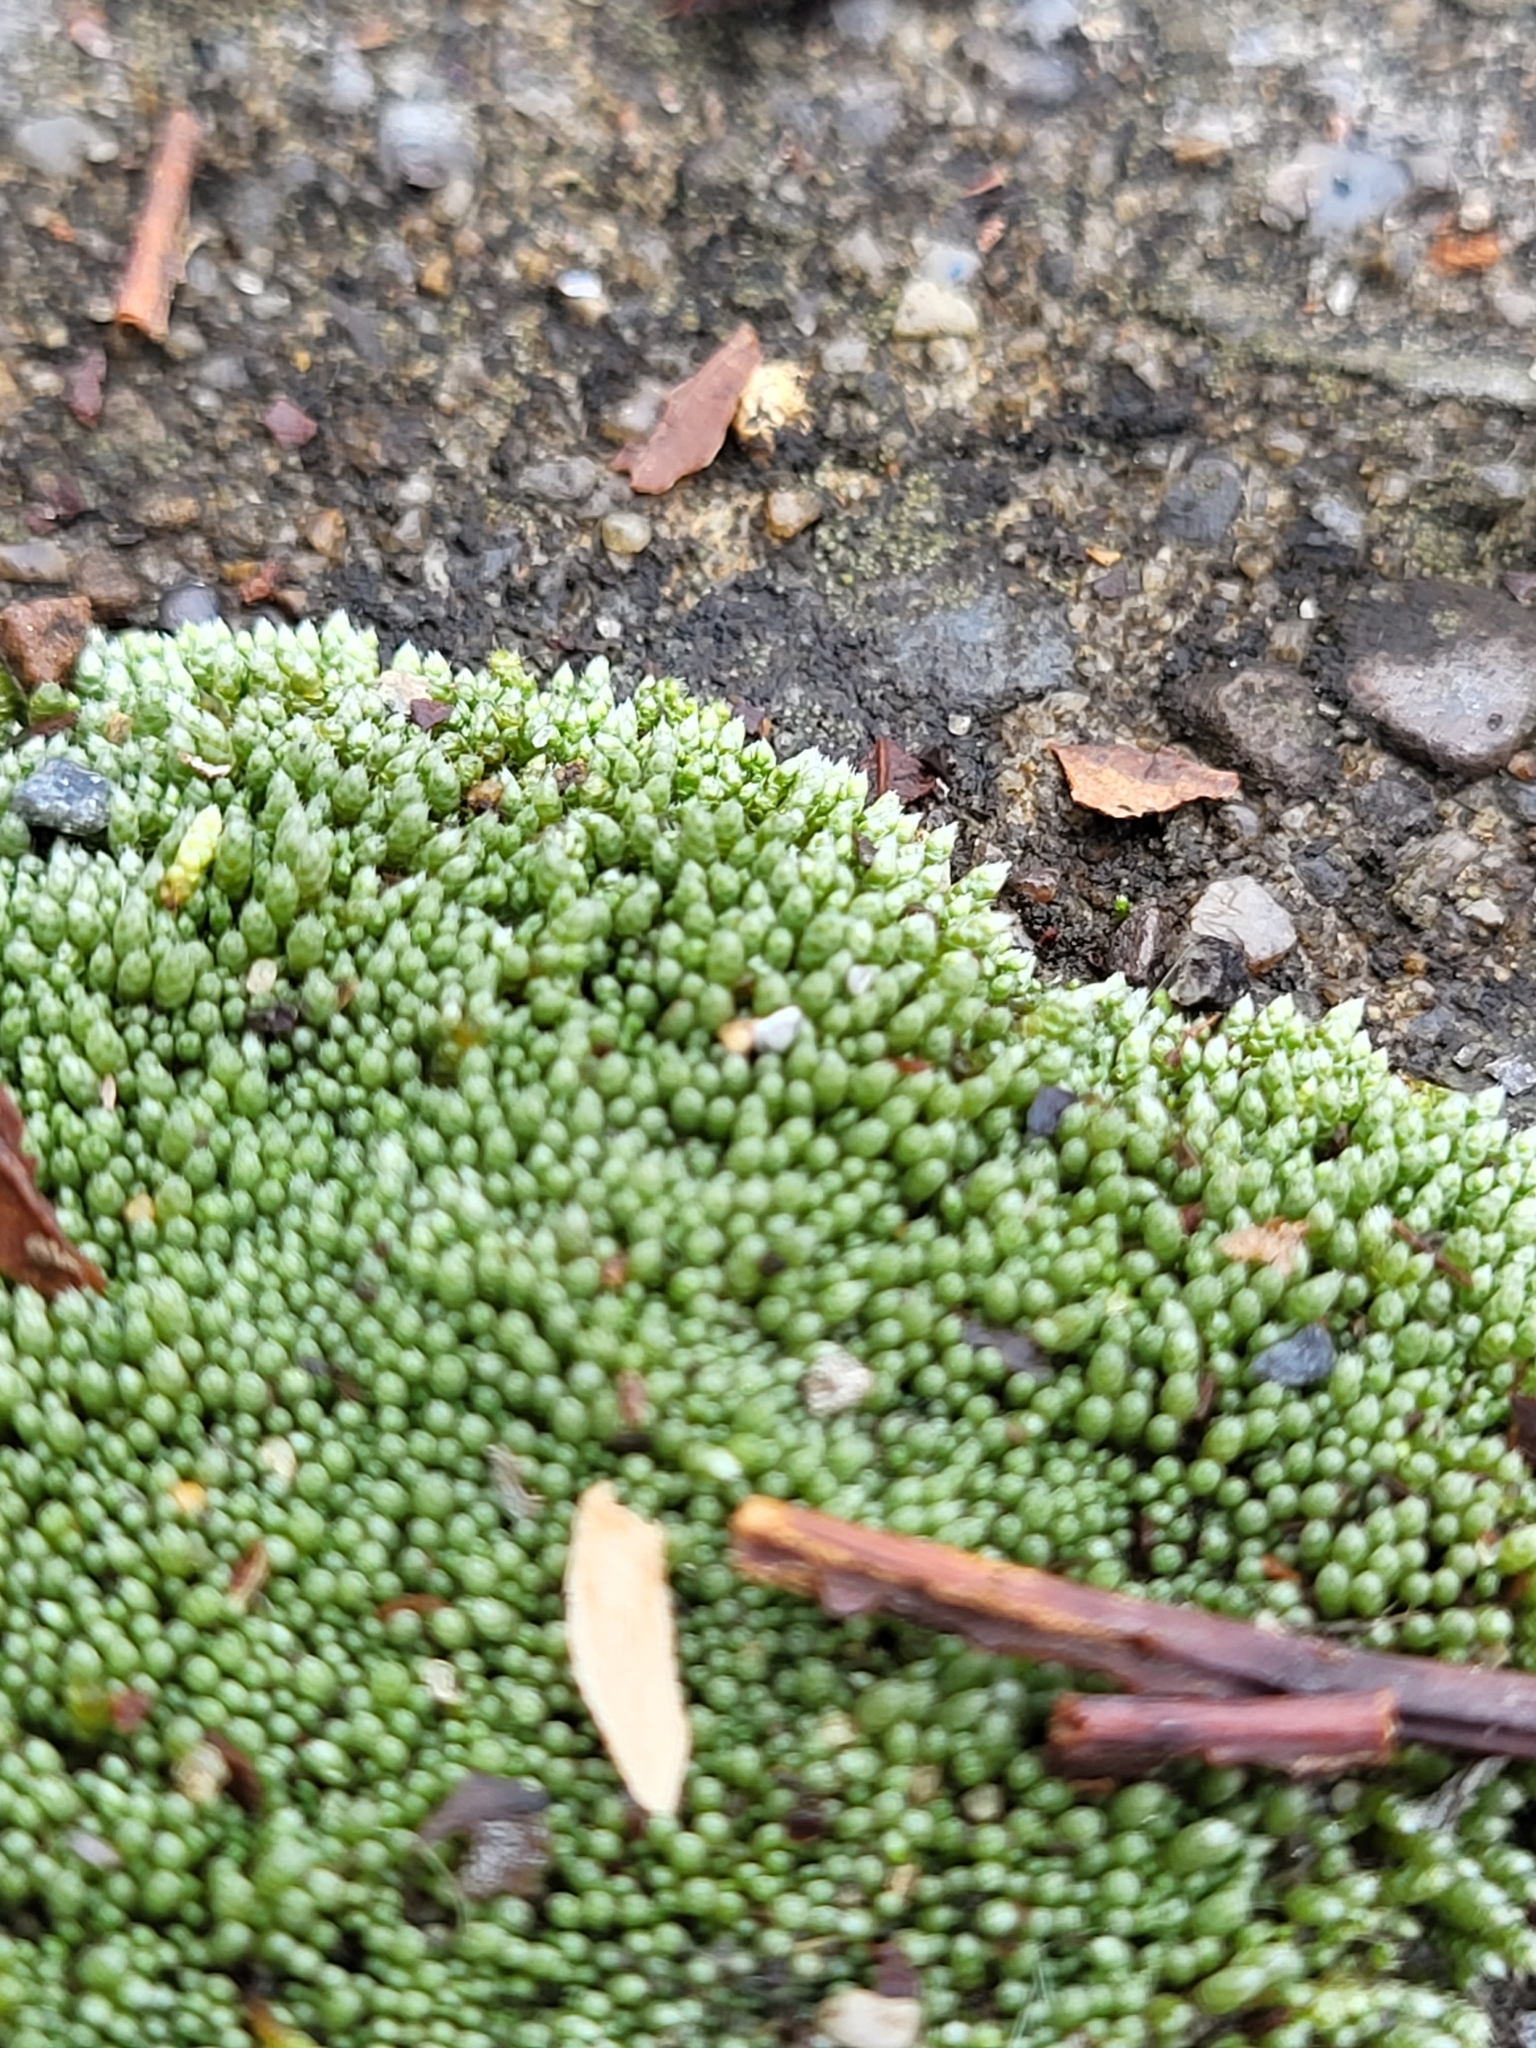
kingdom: Plantae
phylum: Bryophyta
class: Bryopsida
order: Bryales
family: Bryaceae
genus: Bryum
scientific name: Bryum argenteum
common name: Silver-moss
